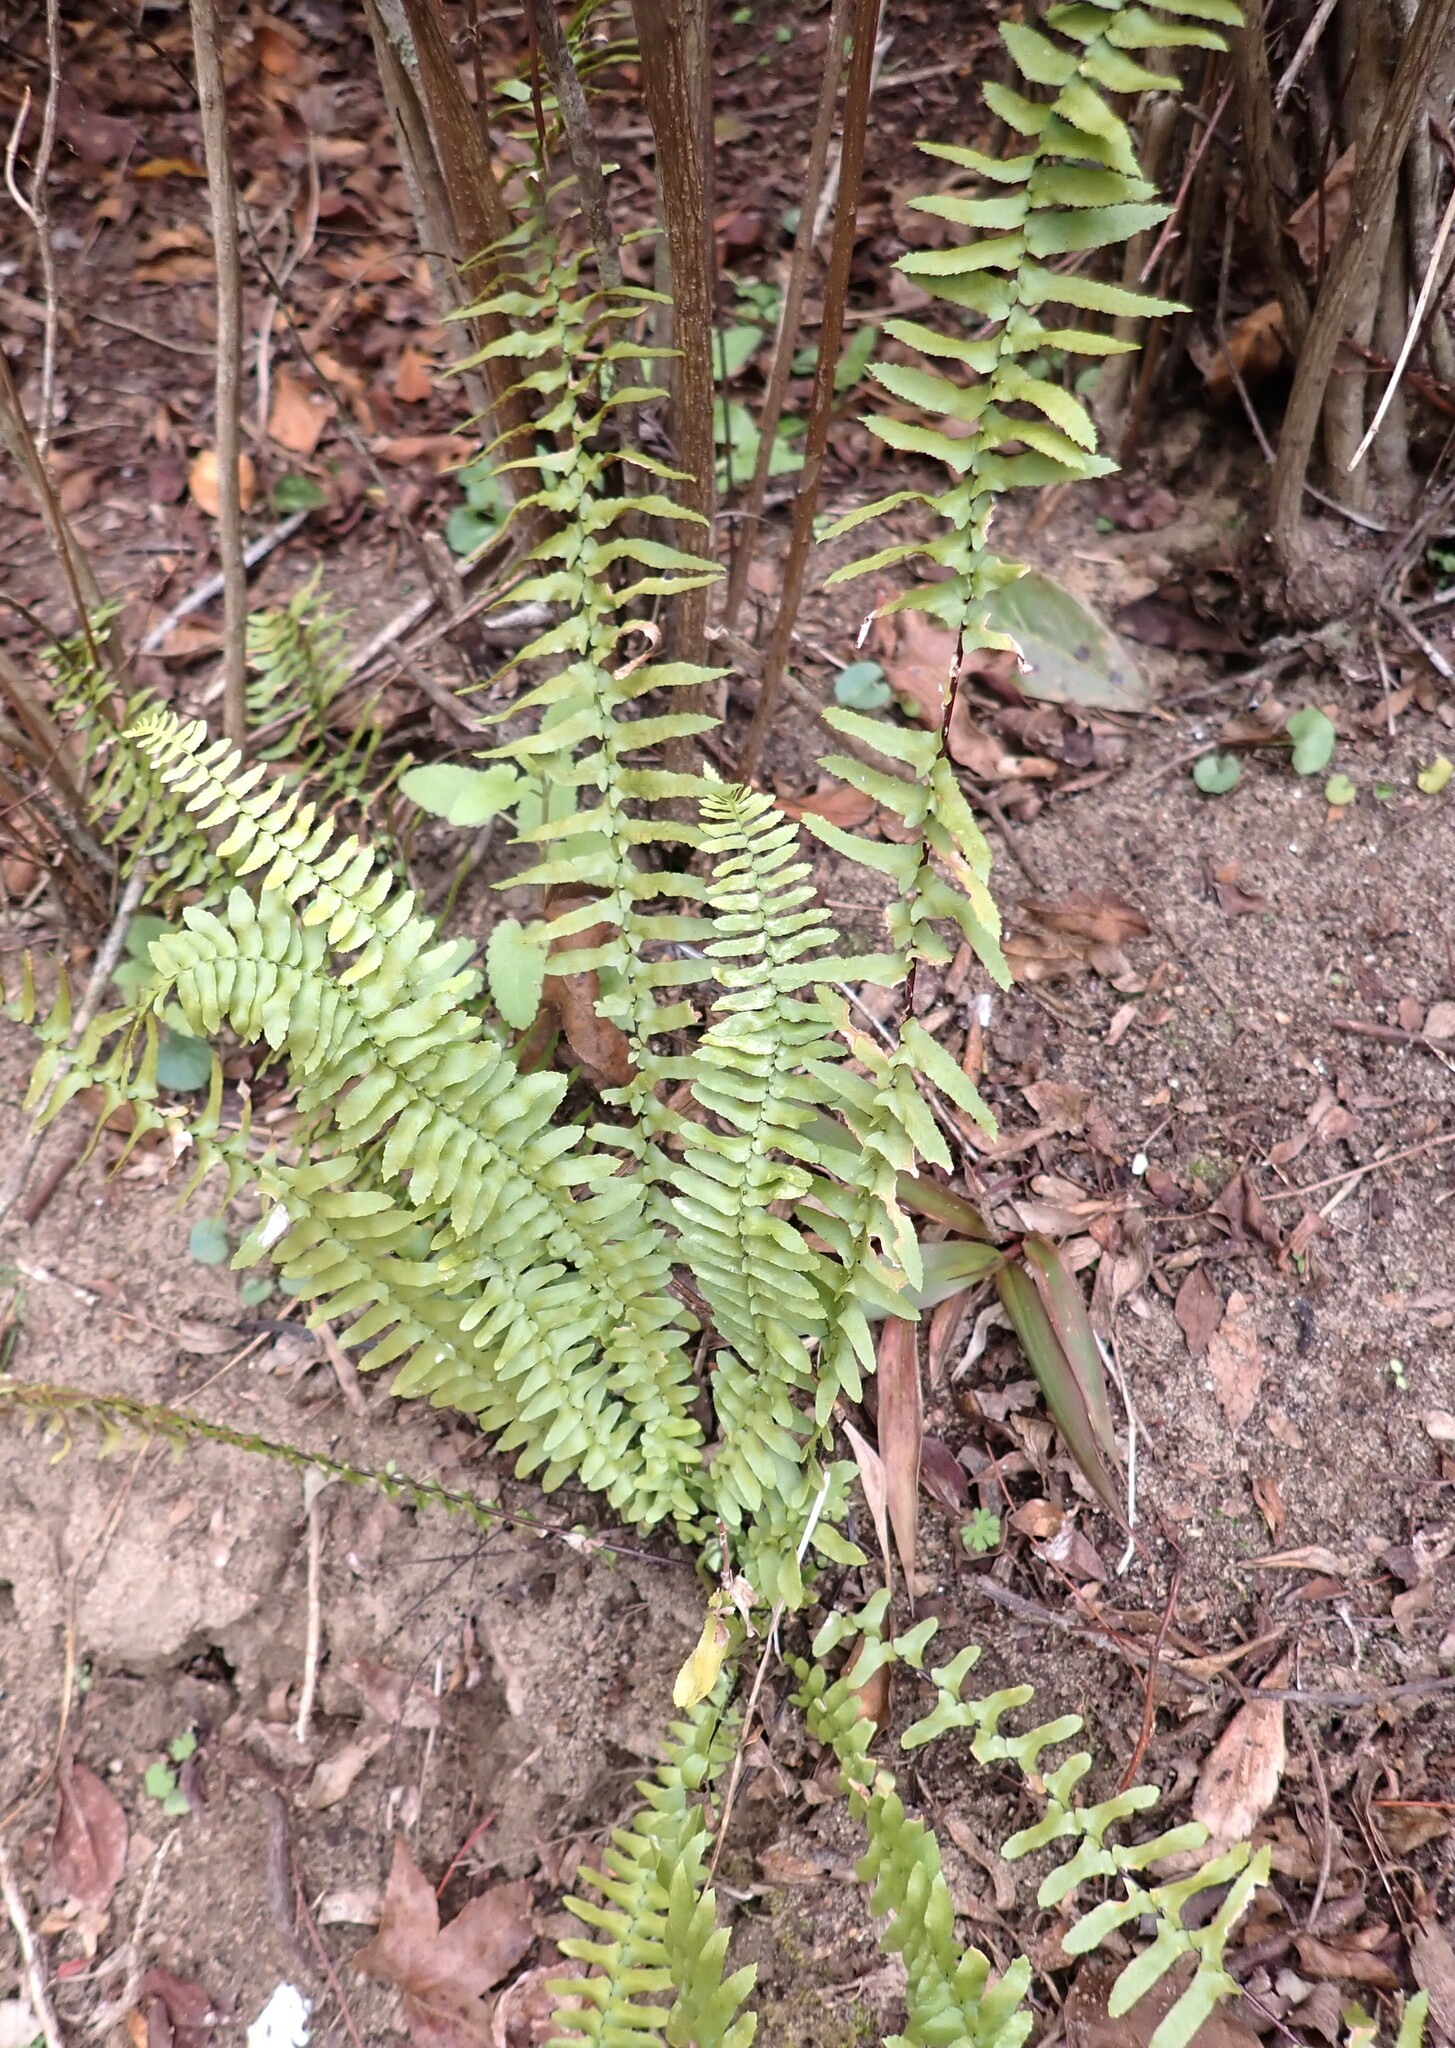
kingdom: Plantae
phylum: Tracheophyta
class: Polypodiopsida
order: Polypodiales
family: Aspleniaceae
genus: Asplenium
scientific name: Asplenium platyneuron
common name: Ebony spleenwort
